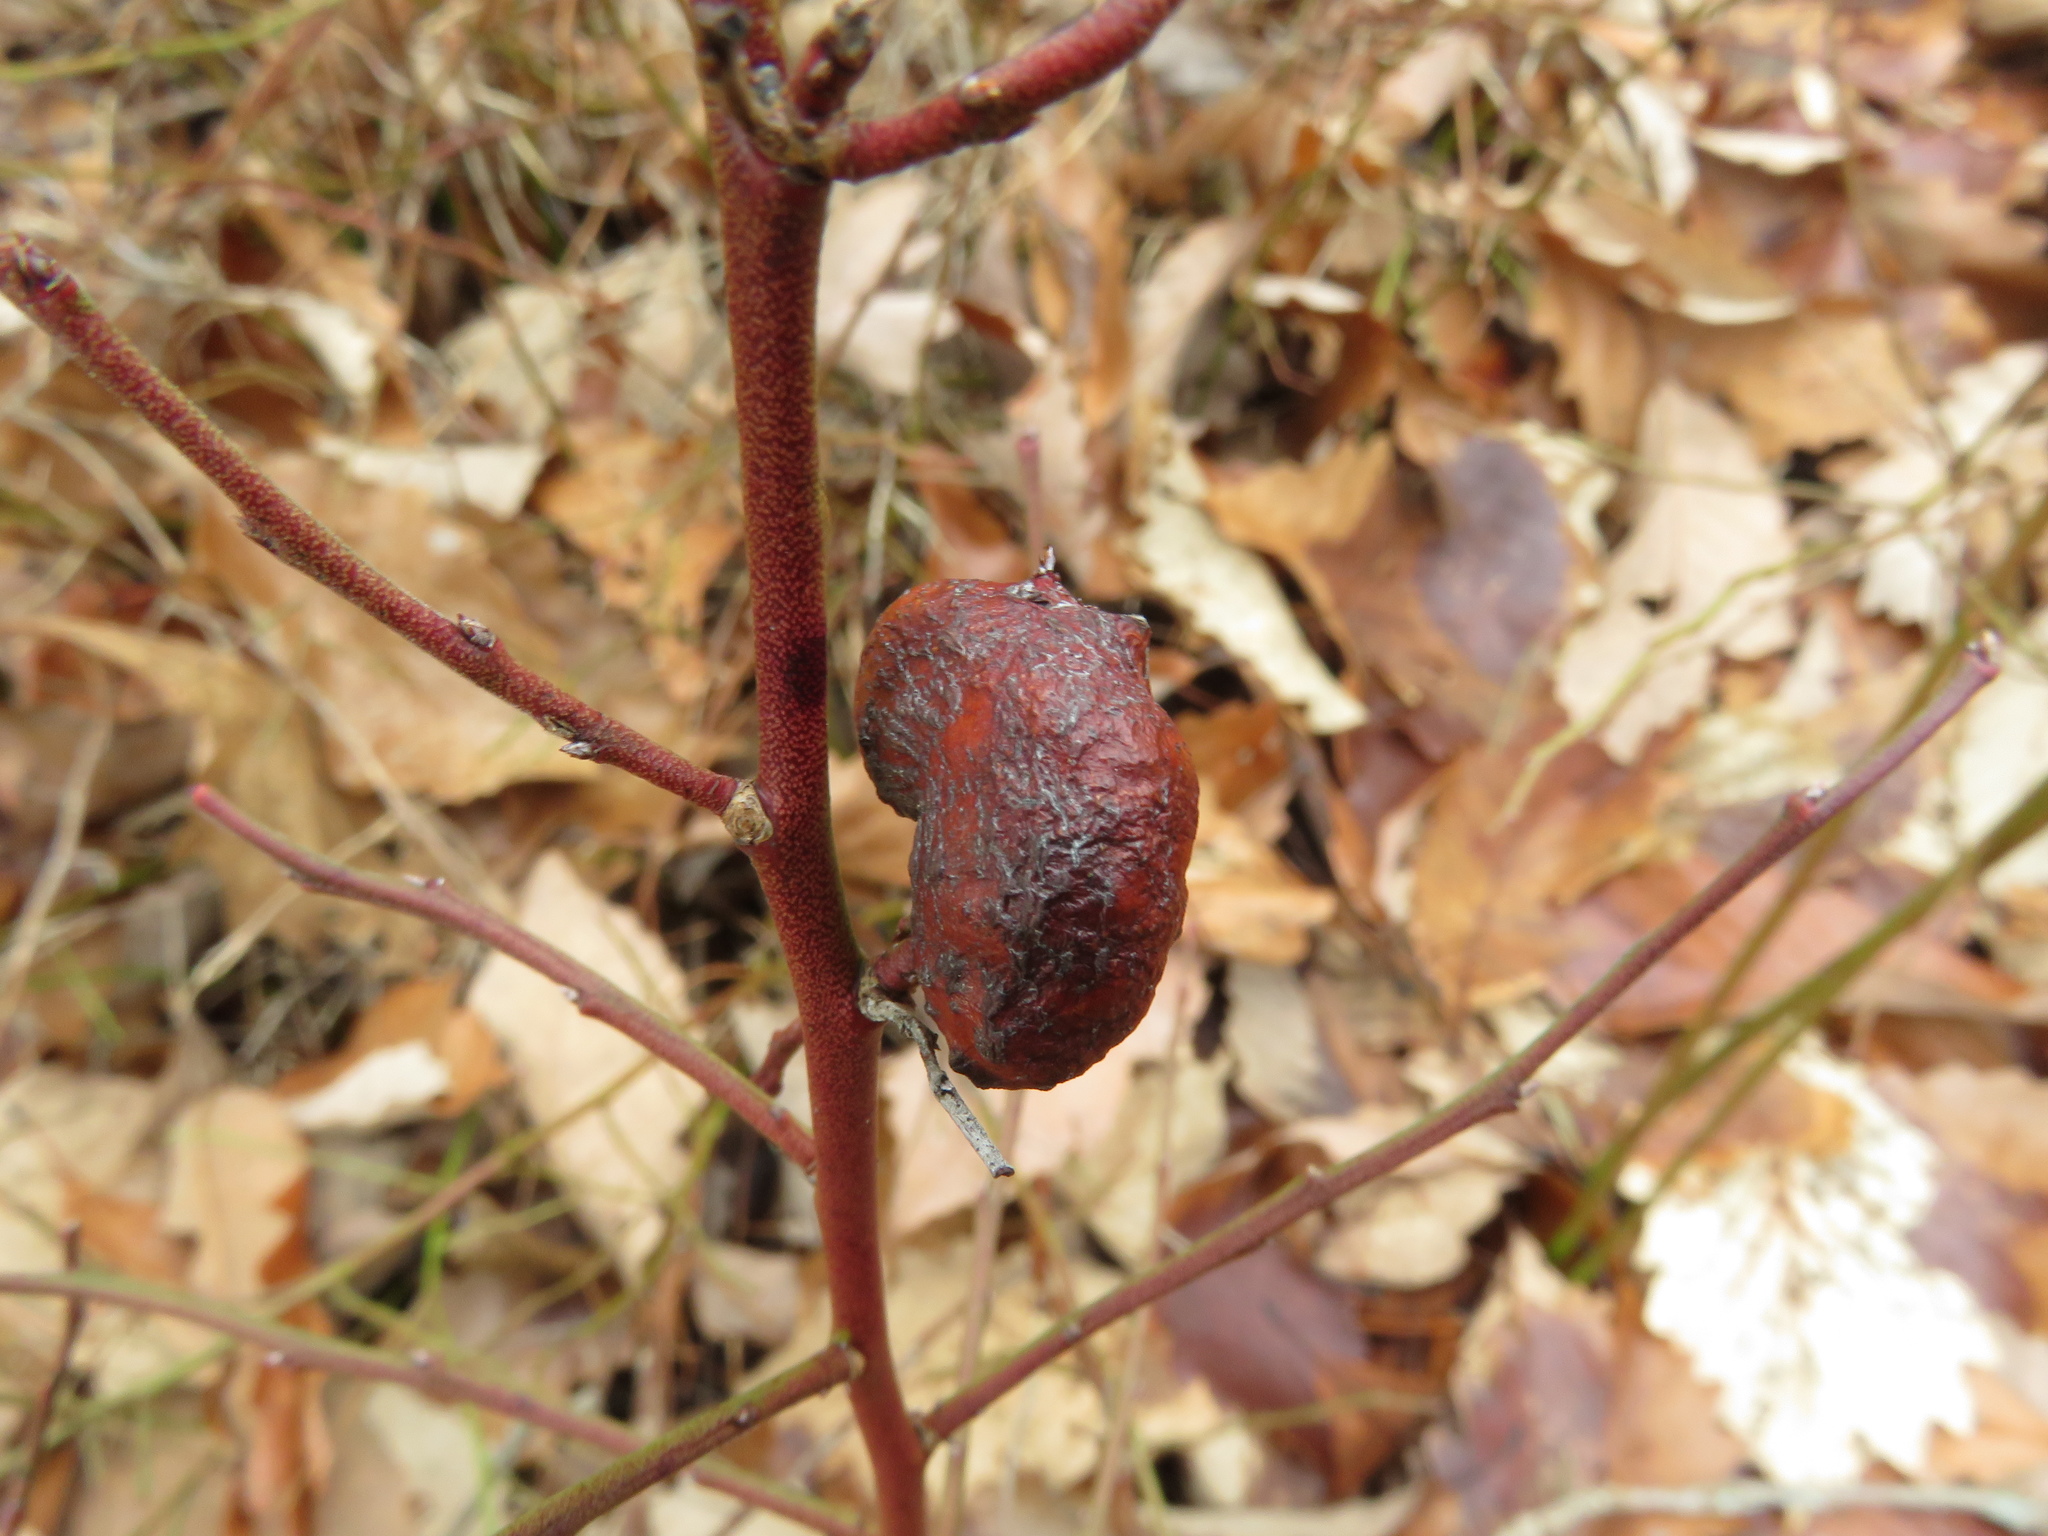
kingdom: Animalia
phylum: Arthropoda
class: Insecta
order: Hymenoptera
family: Pteromalidae
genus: Hemadas
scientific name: Hemadas nubilipennis
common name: Blueberry stem gall wasp
